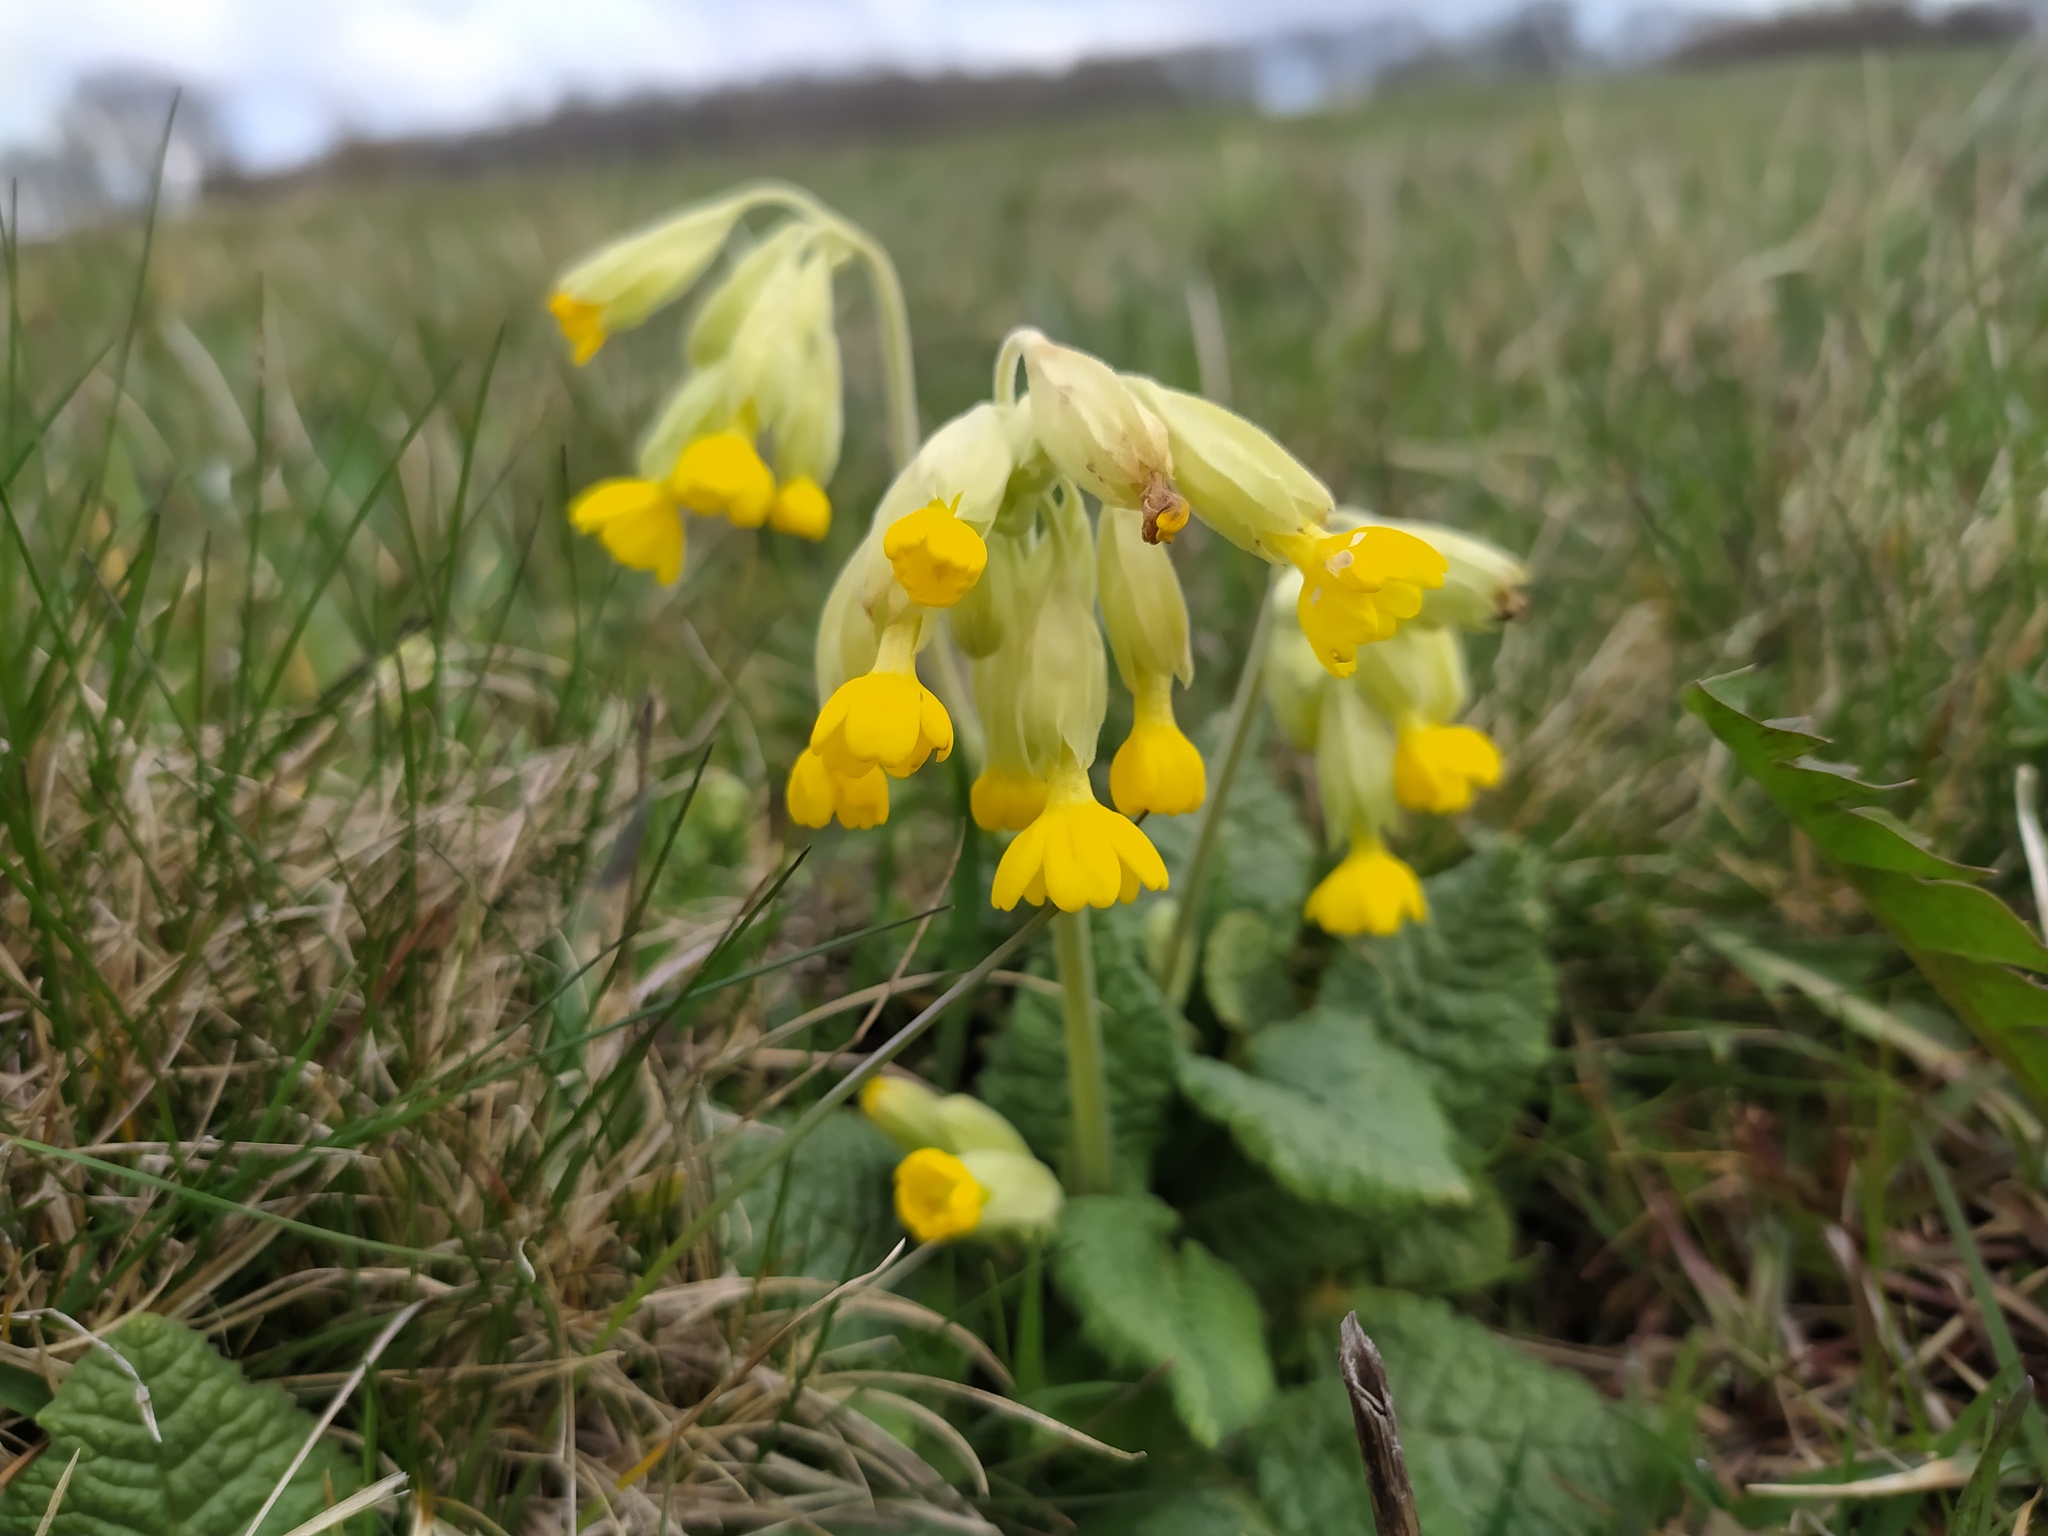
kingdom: Plantae
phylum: Tracheophyta
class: Magnoliopsida
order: Ericales
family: Primulaceae
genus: Primula
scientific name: Primula veris
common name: Cowslip
